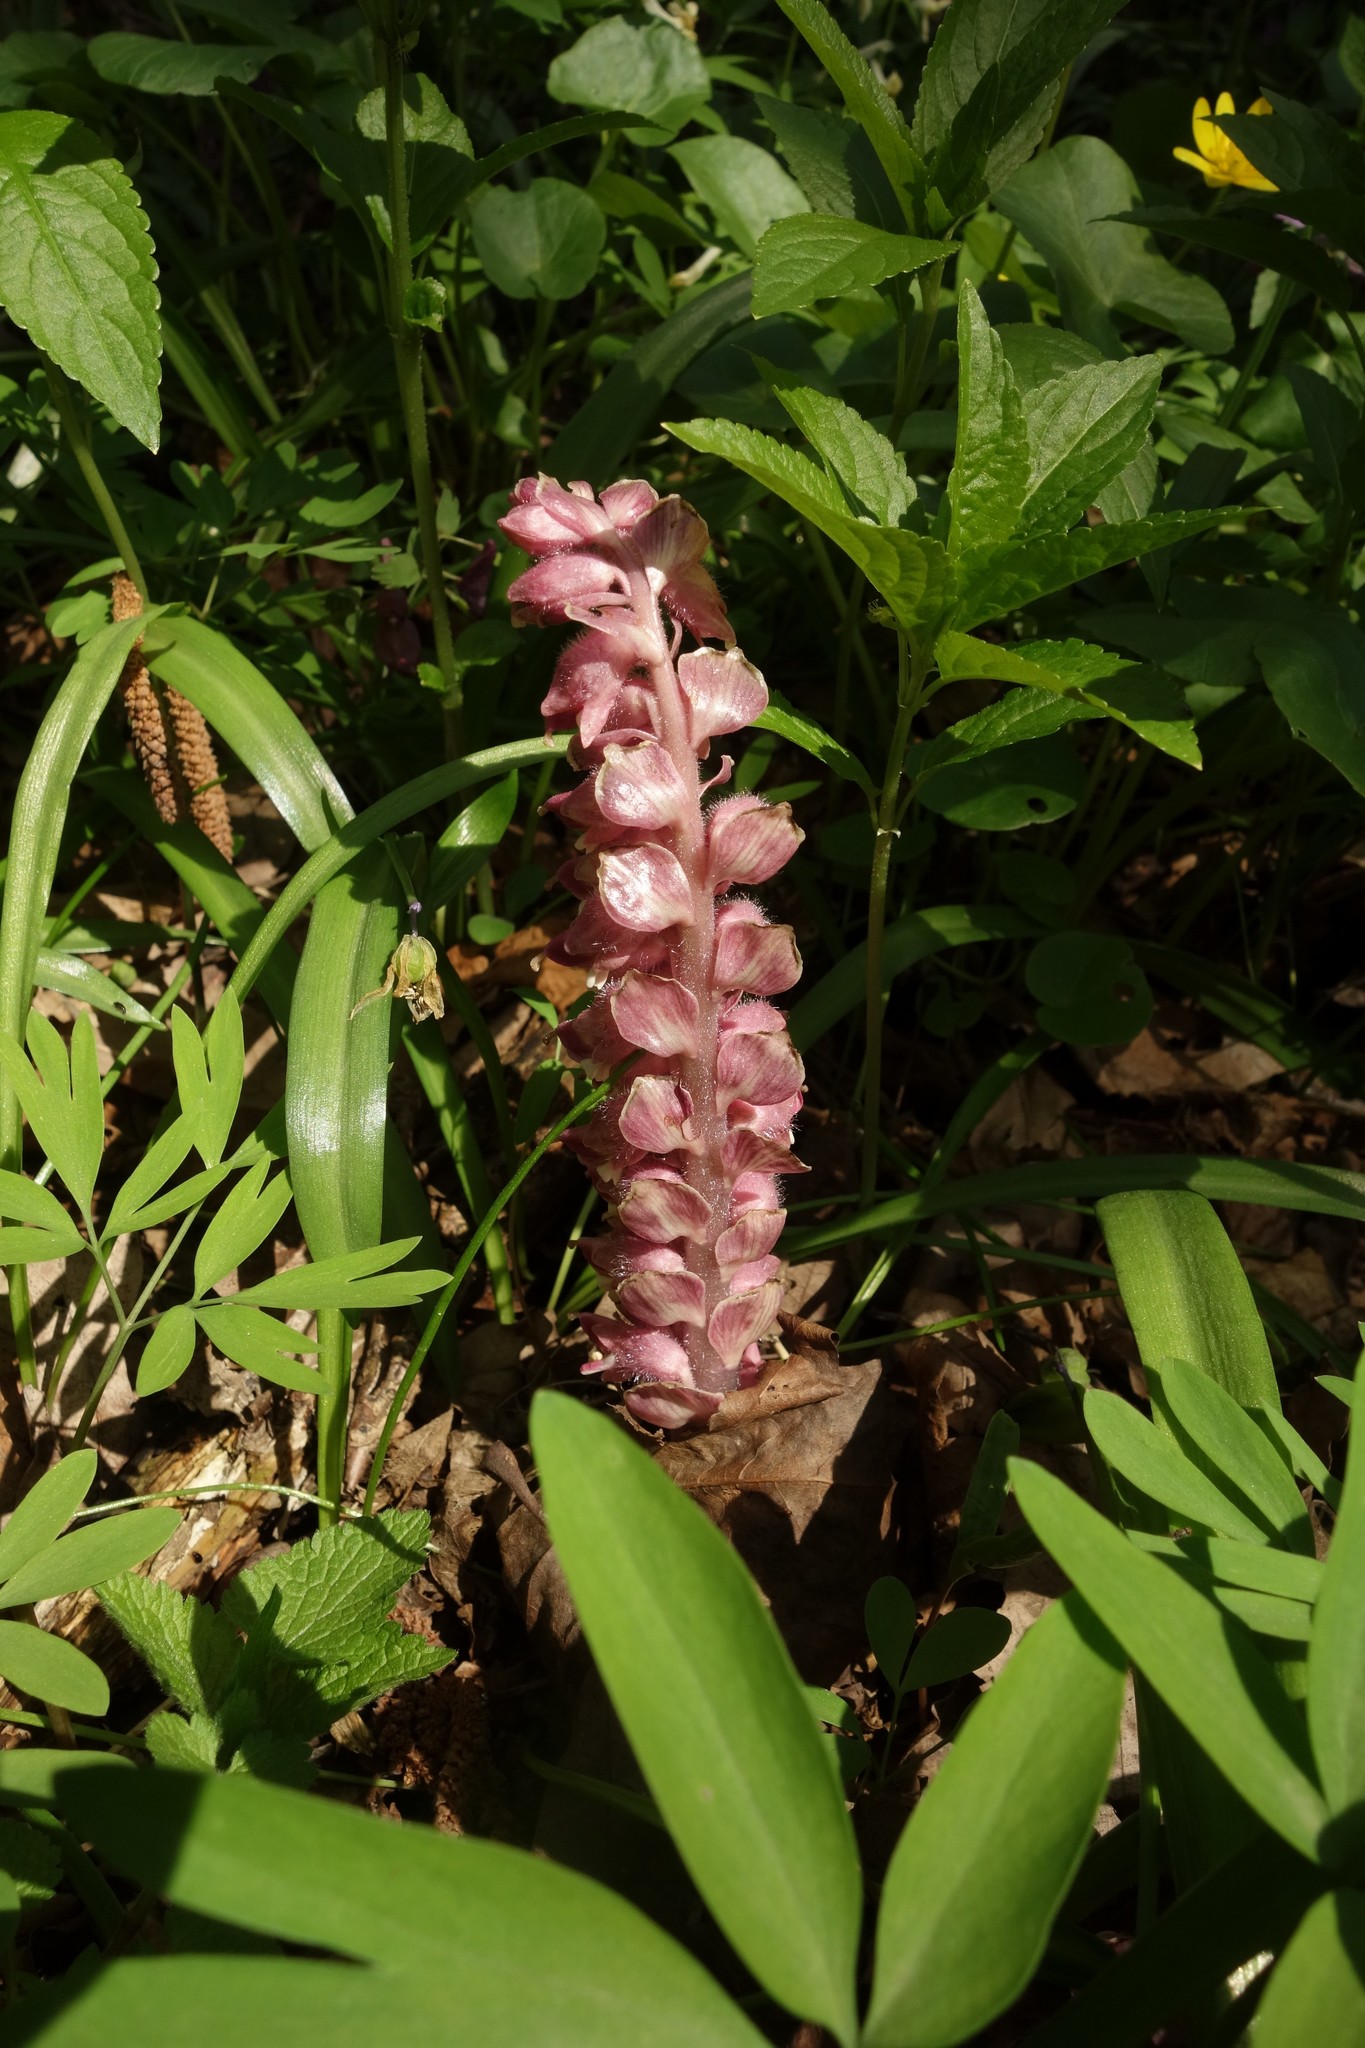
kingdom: Plantae
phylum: Tracheophyta
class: Magnoliopsida
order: Lamiales
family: Orobanchaceae
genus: Lathraea
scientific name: Lathraea squamaria
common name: Toothwort
